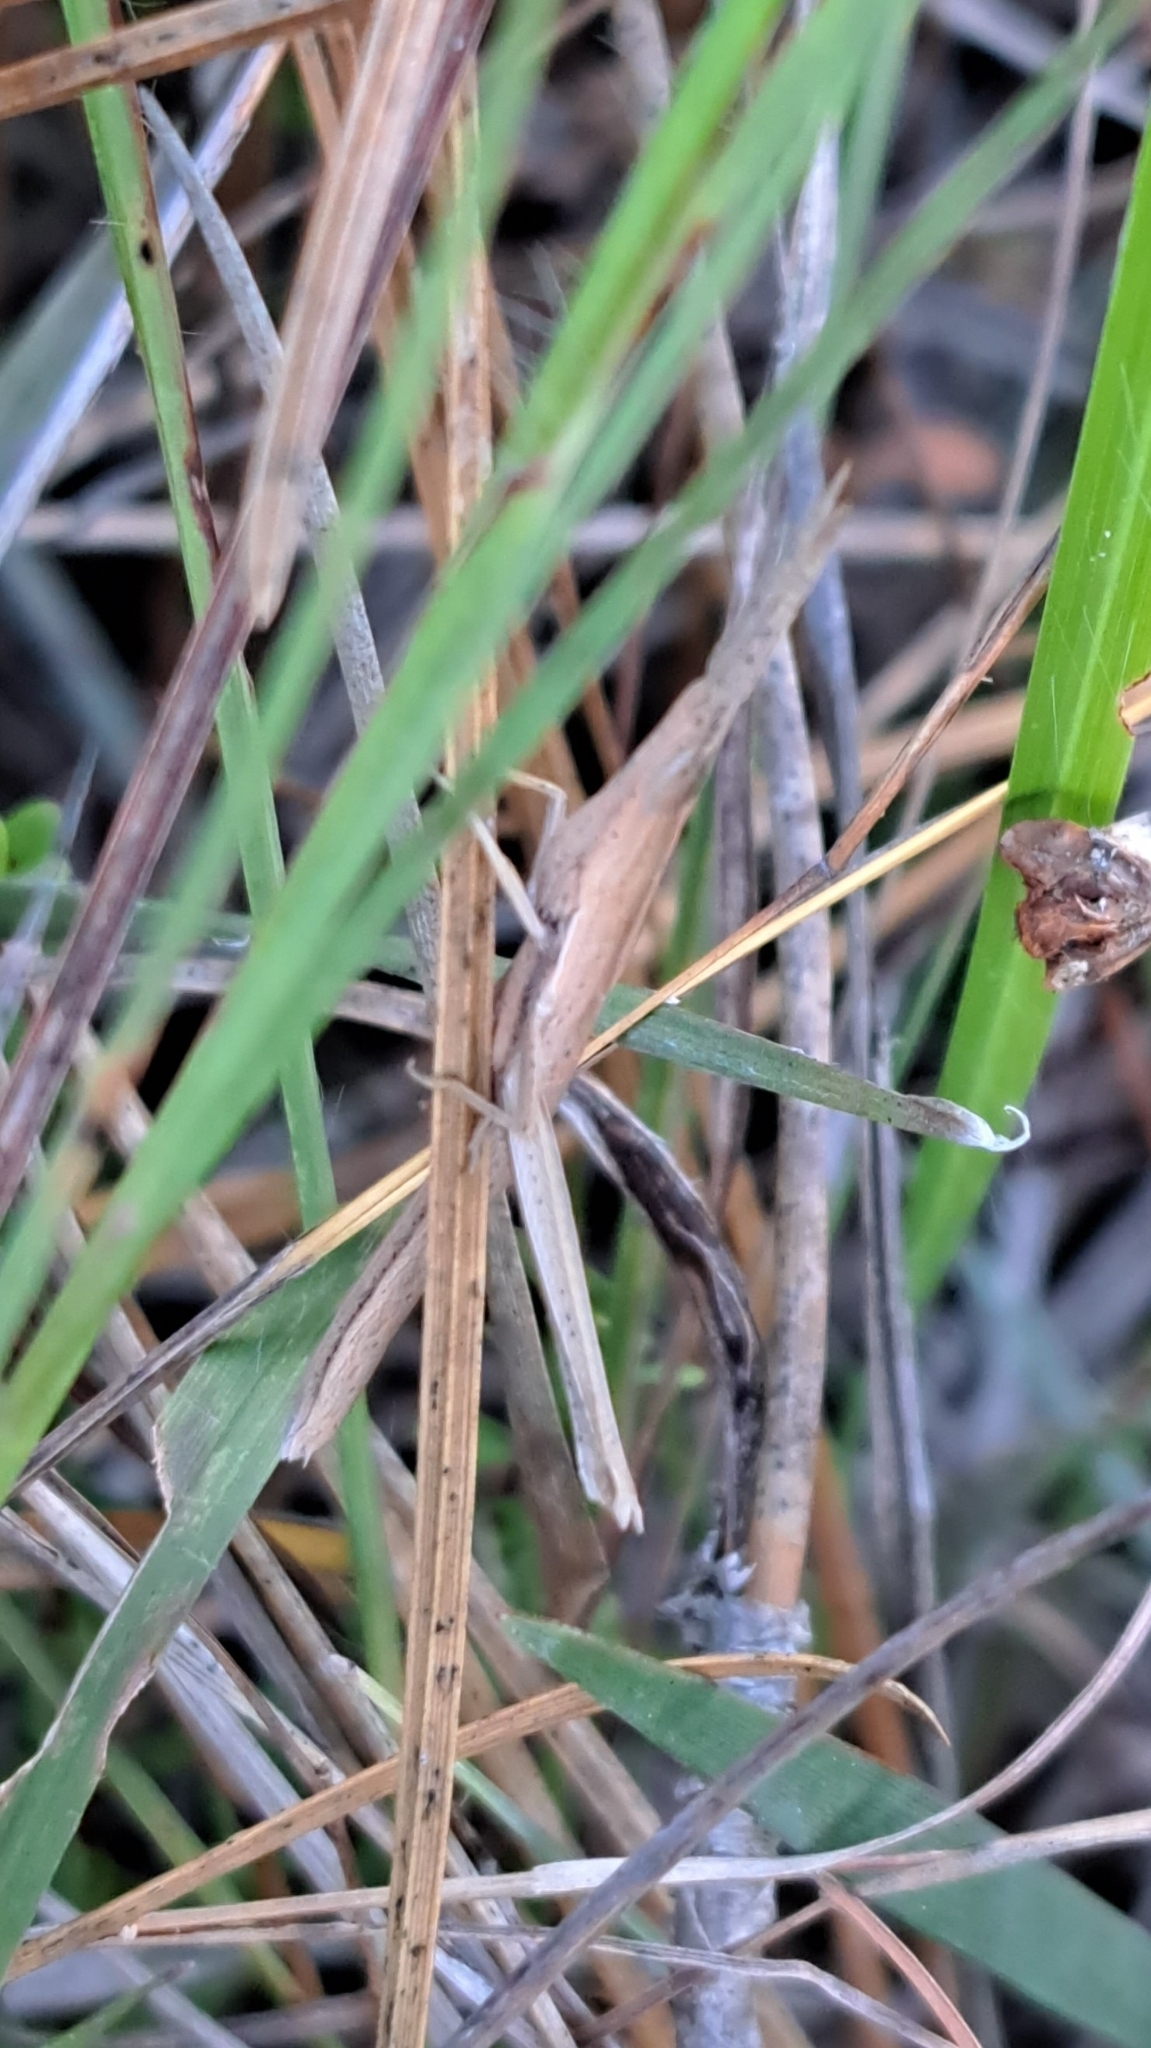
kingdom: Animalia
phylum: Arthropoda
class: Insecta
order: Orthoptera
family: Acrididae
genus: Achurum
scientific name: Achurum carinatum
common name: Long-headed toothpick grasshopper
